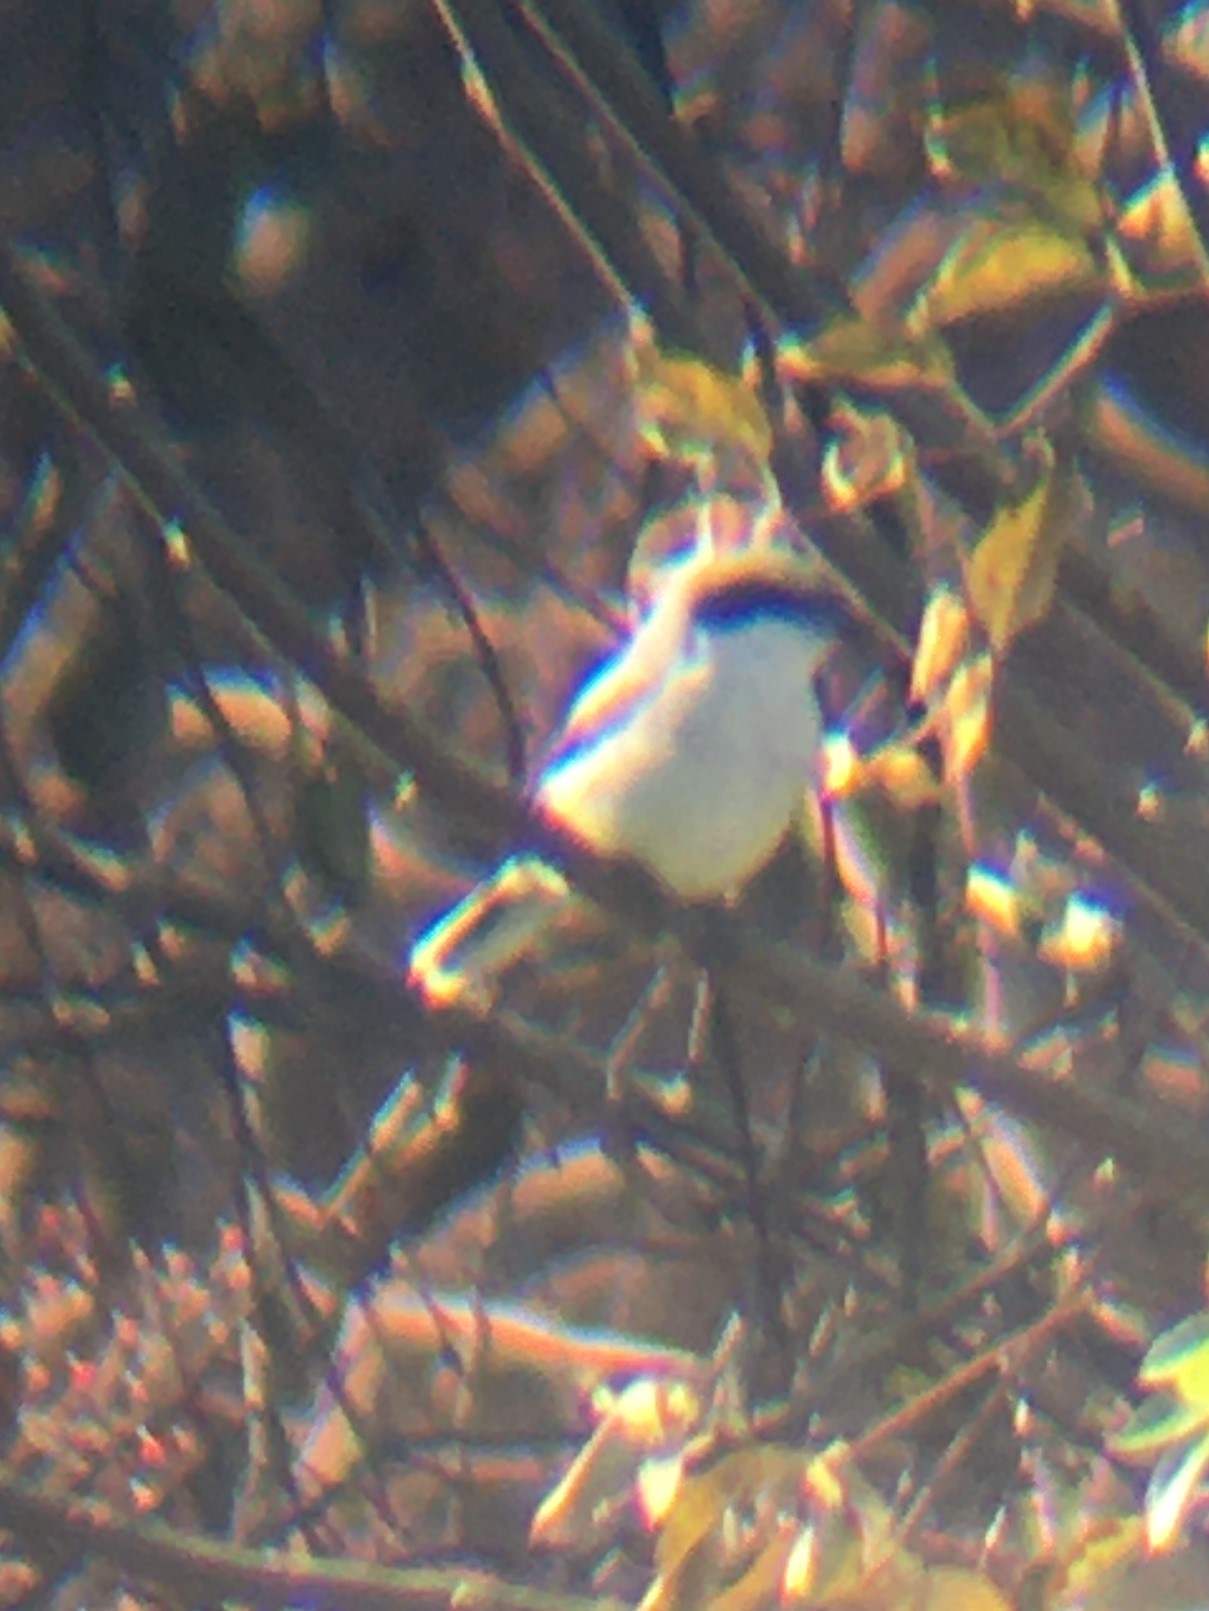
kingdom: Animalia
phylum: Chordata
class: Aves
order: Passeriformes
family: Laniidae
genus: Lanius
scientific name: Lanius ludovicianus
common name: Loggerhead shrike
